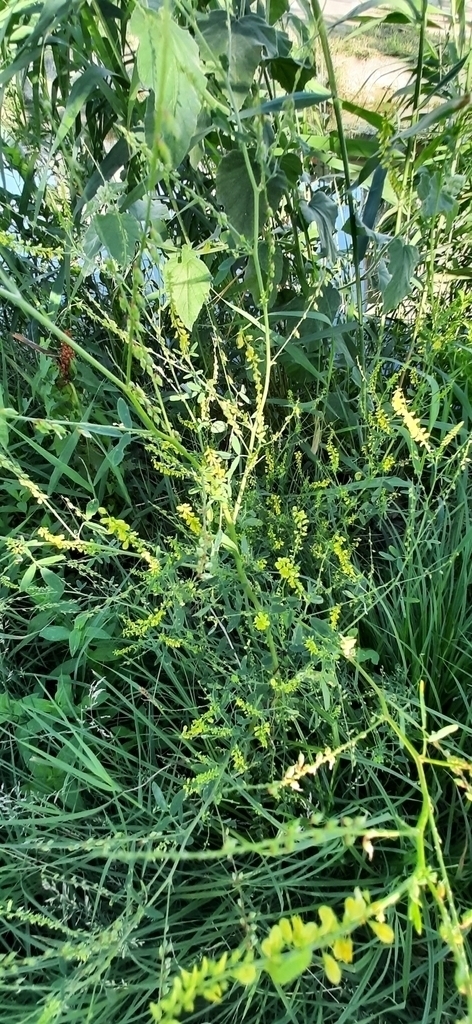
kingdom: Plantae
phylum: Tracheophyta
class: Magnoliopsida
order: Fabales
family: Fabaceae
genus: Melilotus
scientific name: Melilotus officinalis
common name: Sweetclover
